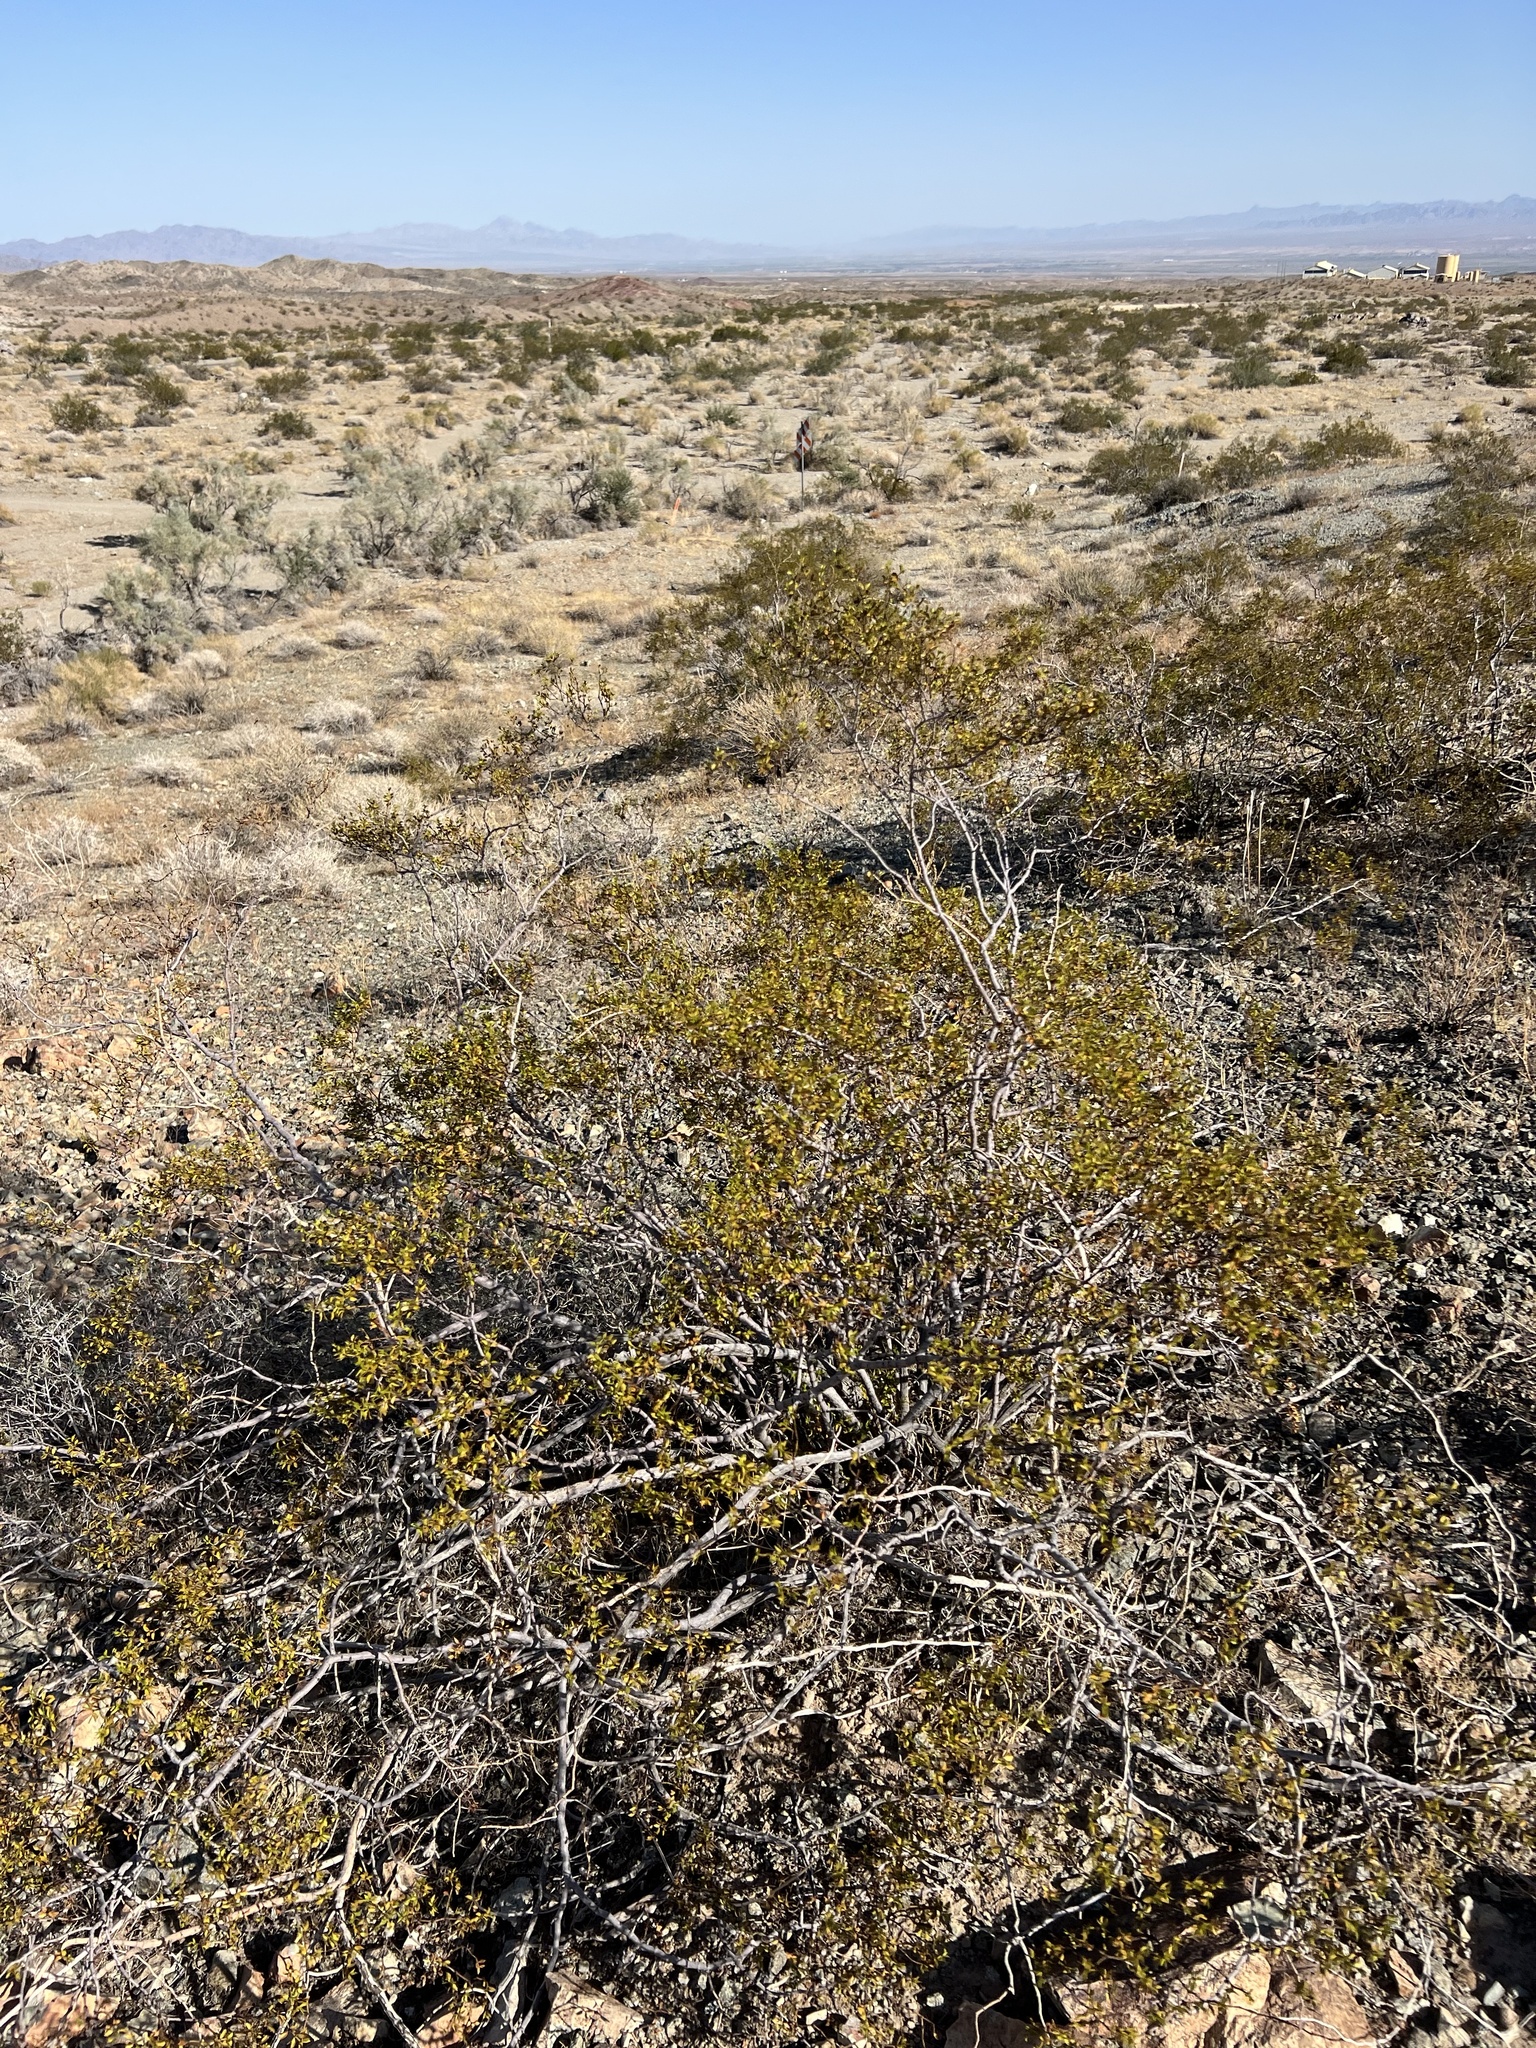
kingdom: Plantae
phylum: Tracheophyta
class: Magnoliopsida
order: Zygophyllales
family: Zygophyllaceae
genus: Larrea
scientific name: Larrea tridentata
